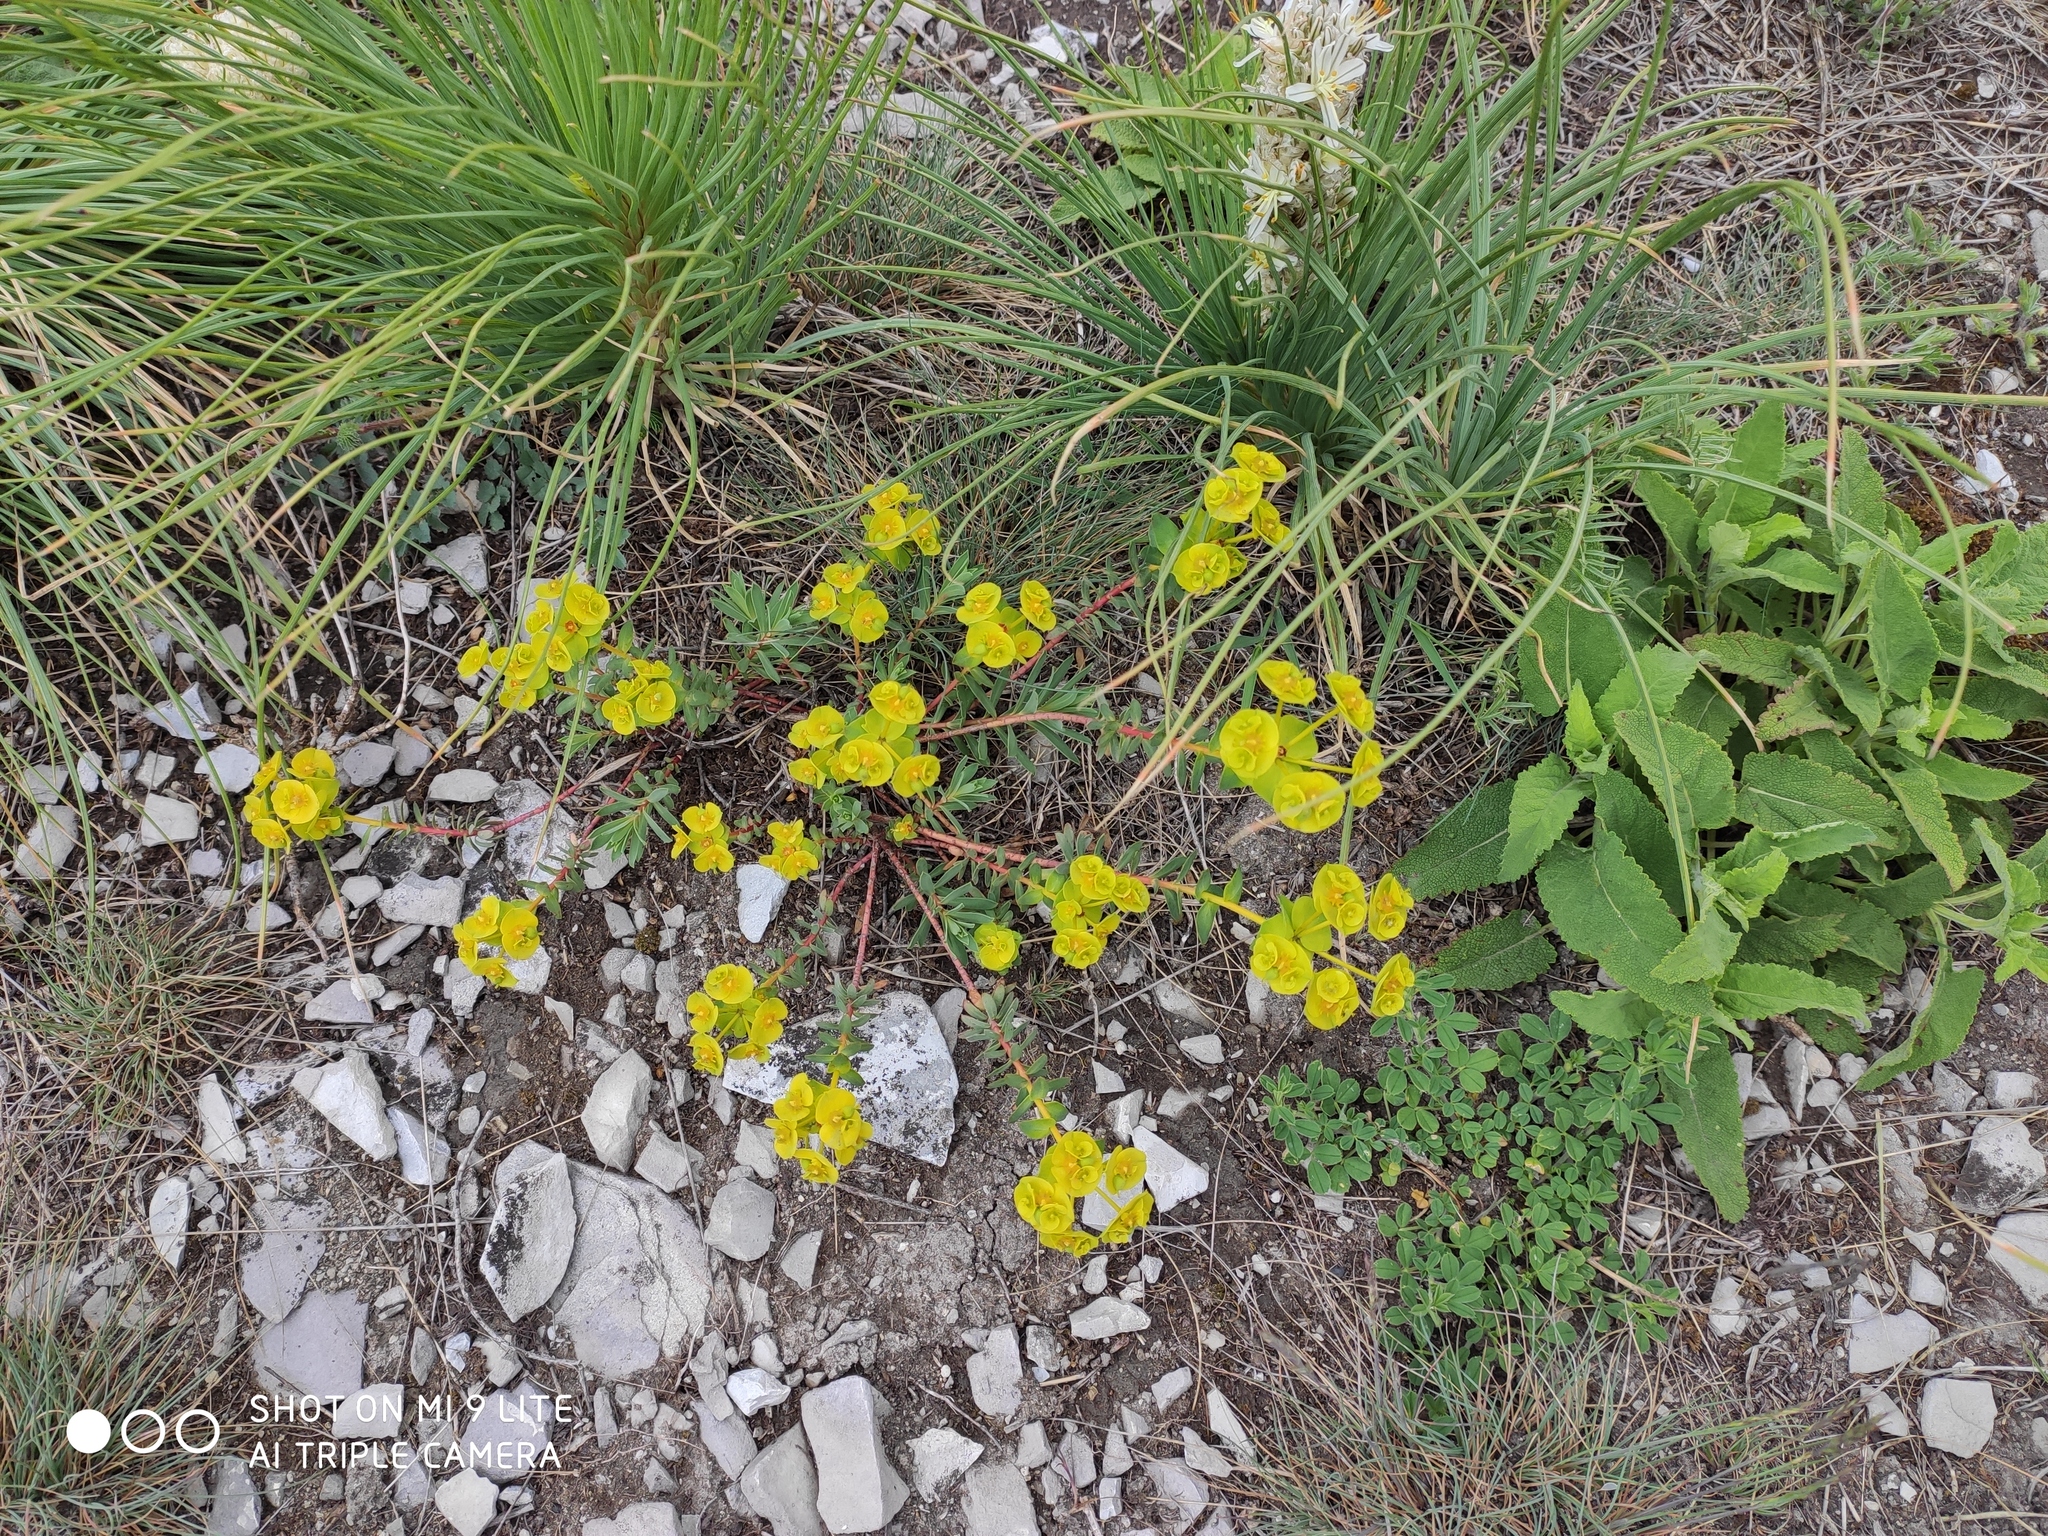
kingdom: Plantae
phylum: Tracheophyta
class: Magnoliopsida
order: Malpighiales
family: Euphorbiaceae
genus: Euphorbia
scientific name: Euphorbia petrophila
